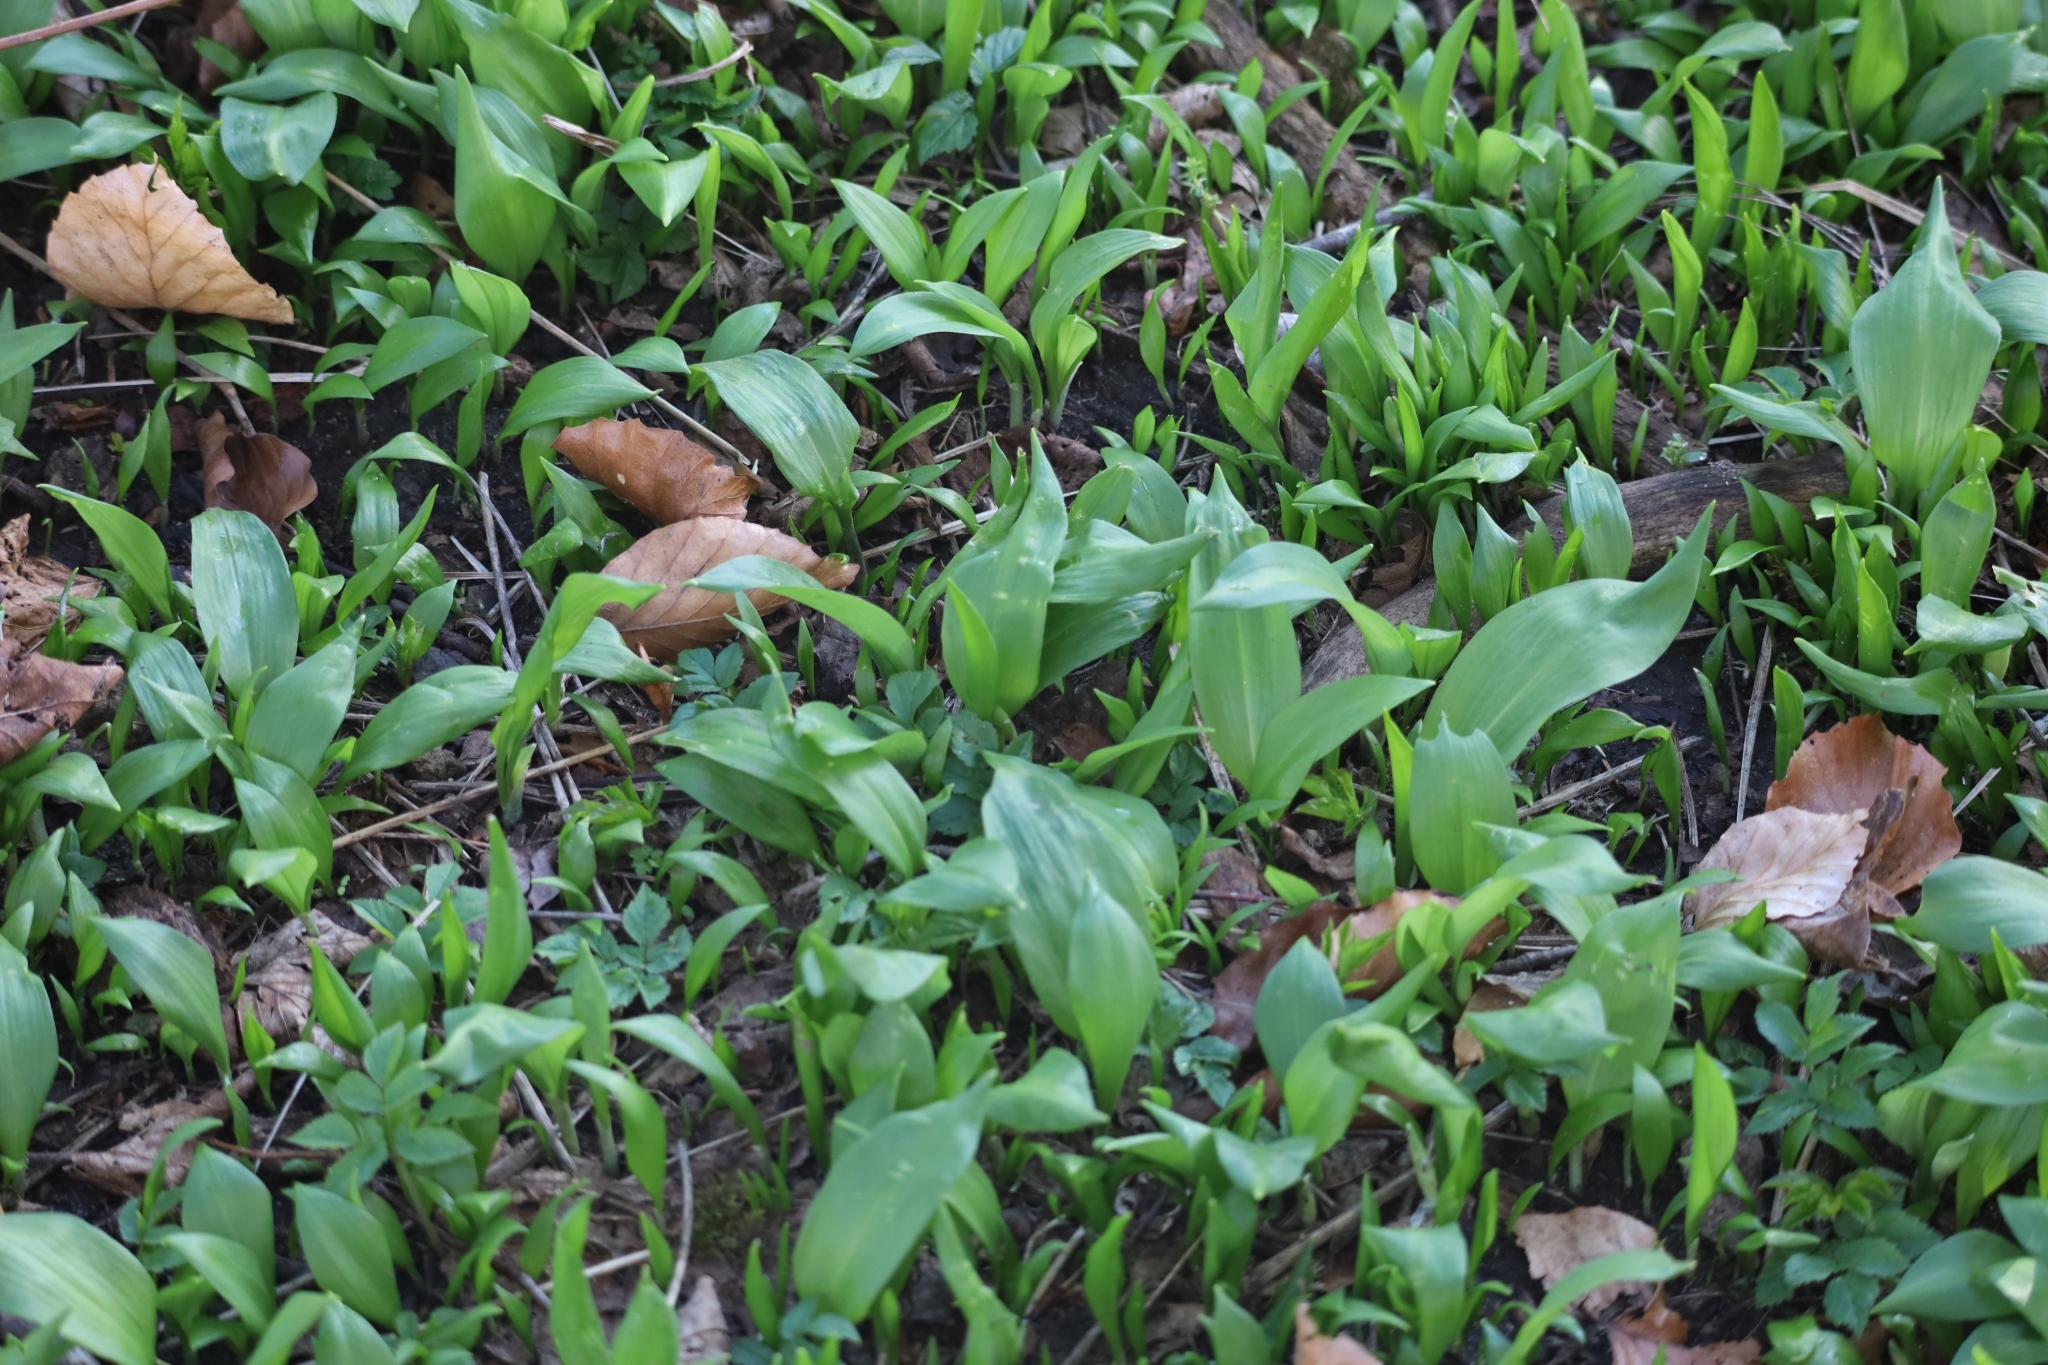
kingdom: Plantae
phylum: Tracheophyta
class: Liliopsida
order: Asparagales
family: Amaryllidaceae
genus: Allium
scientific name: Allium ursinum
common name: Ramsons
